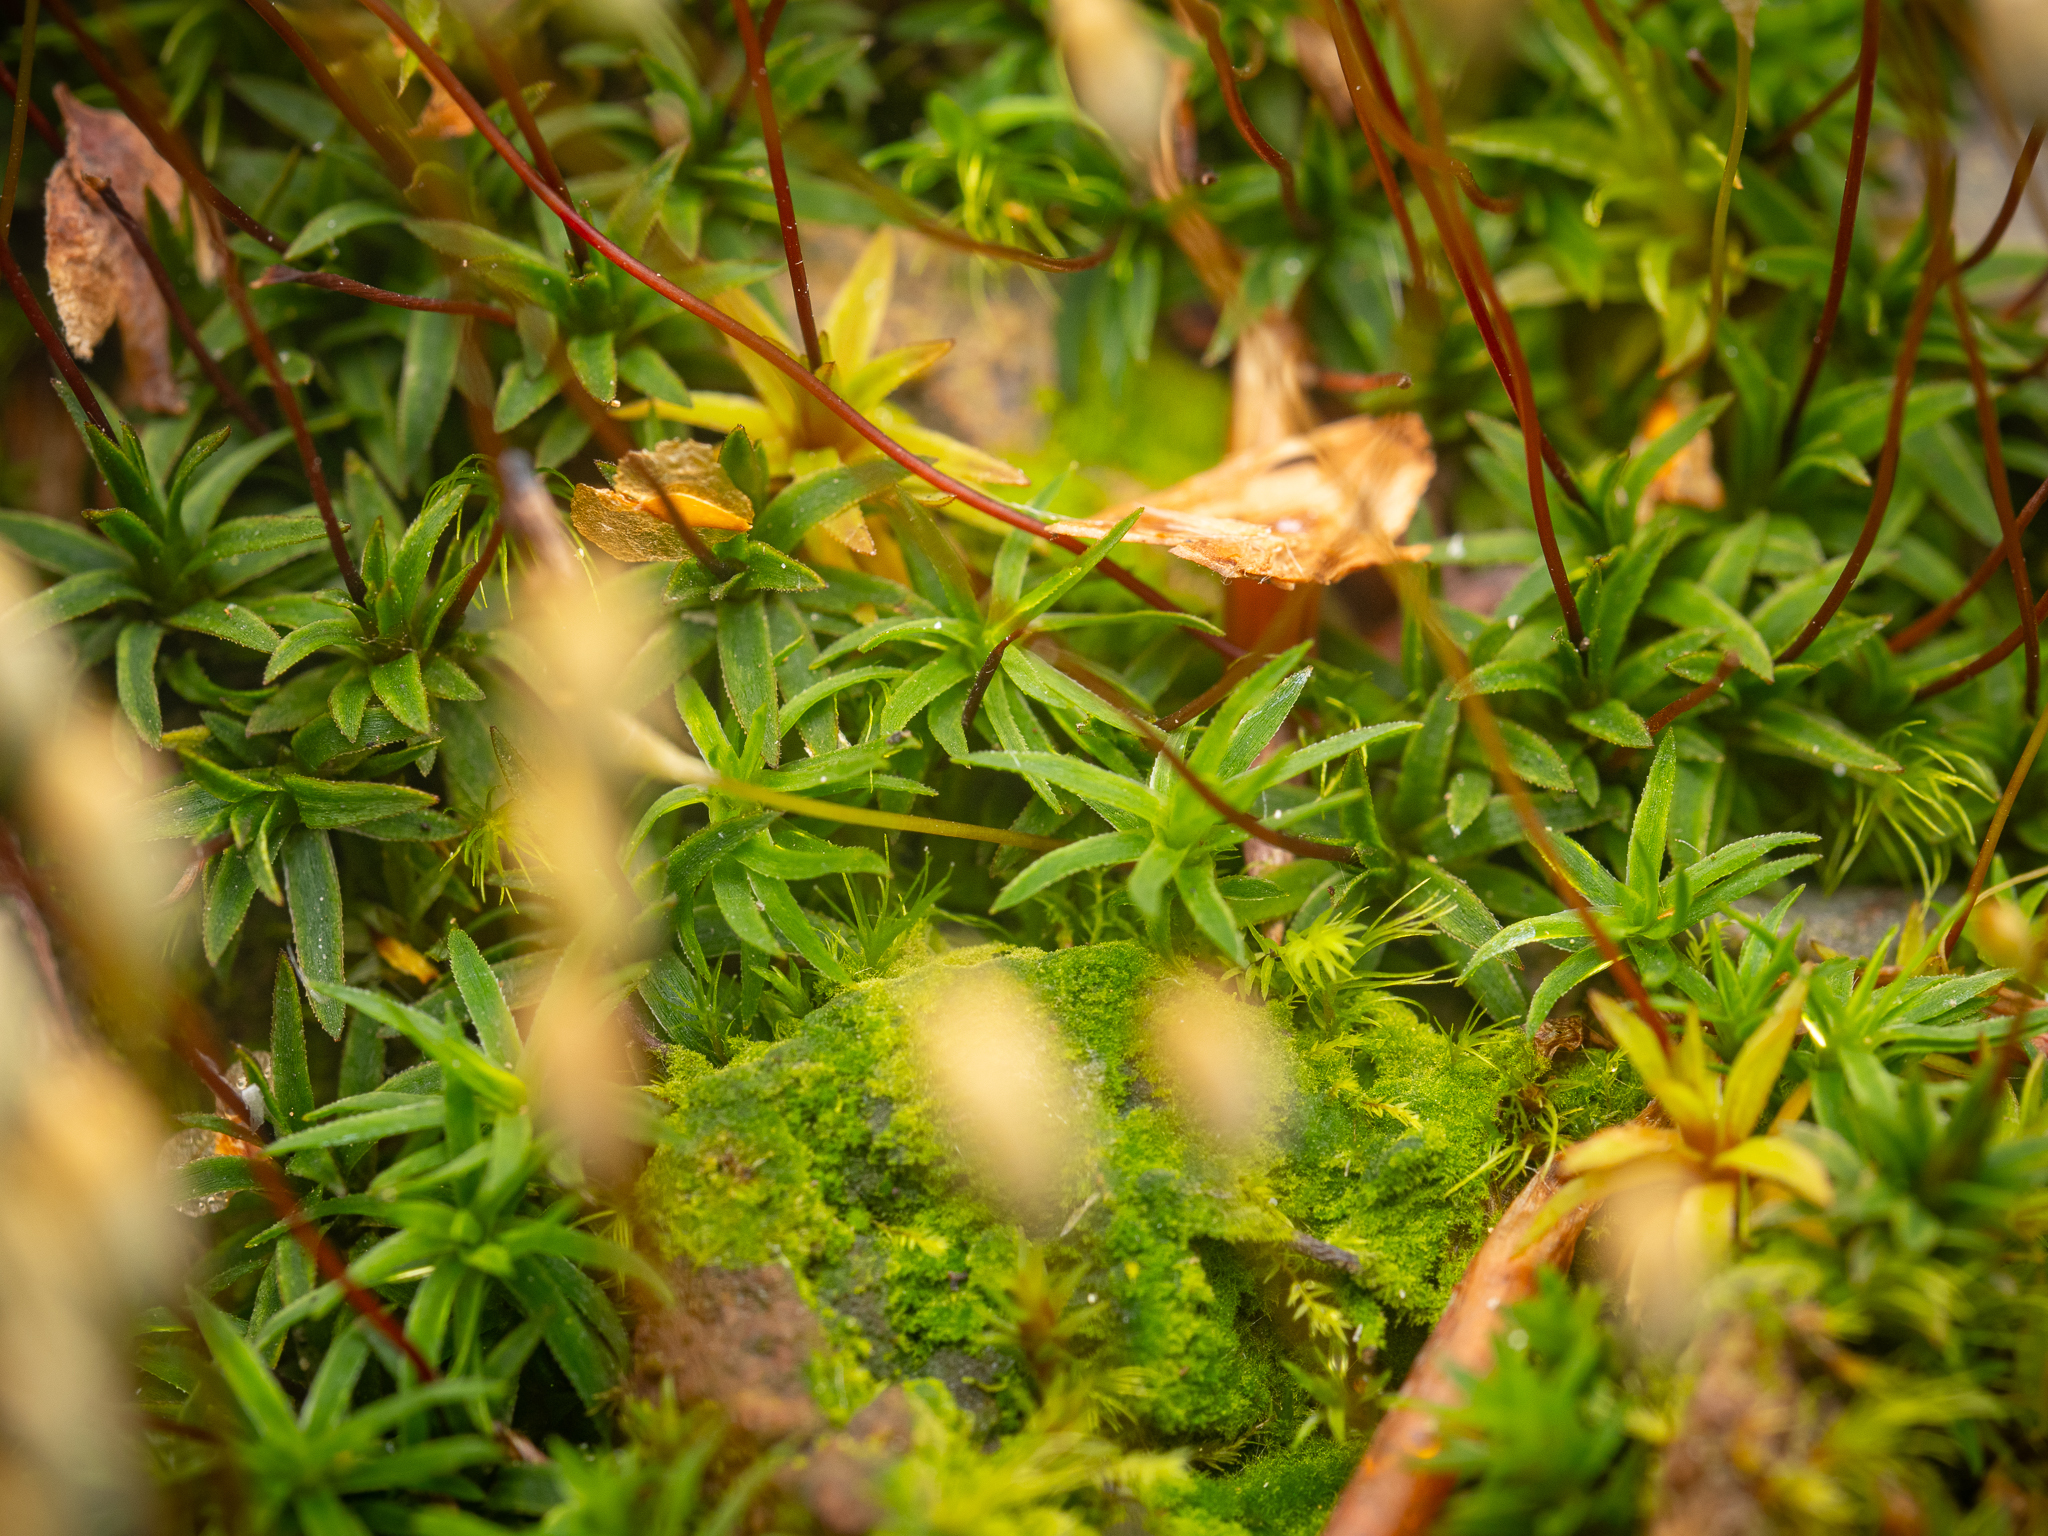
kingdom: Plantae
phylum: Bryophyta
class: Polytrichopsida
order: Polytrichales
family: Polytrichaceae
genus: Pogonatum
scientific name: Pogonatum aloides
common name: Aloe haircap
